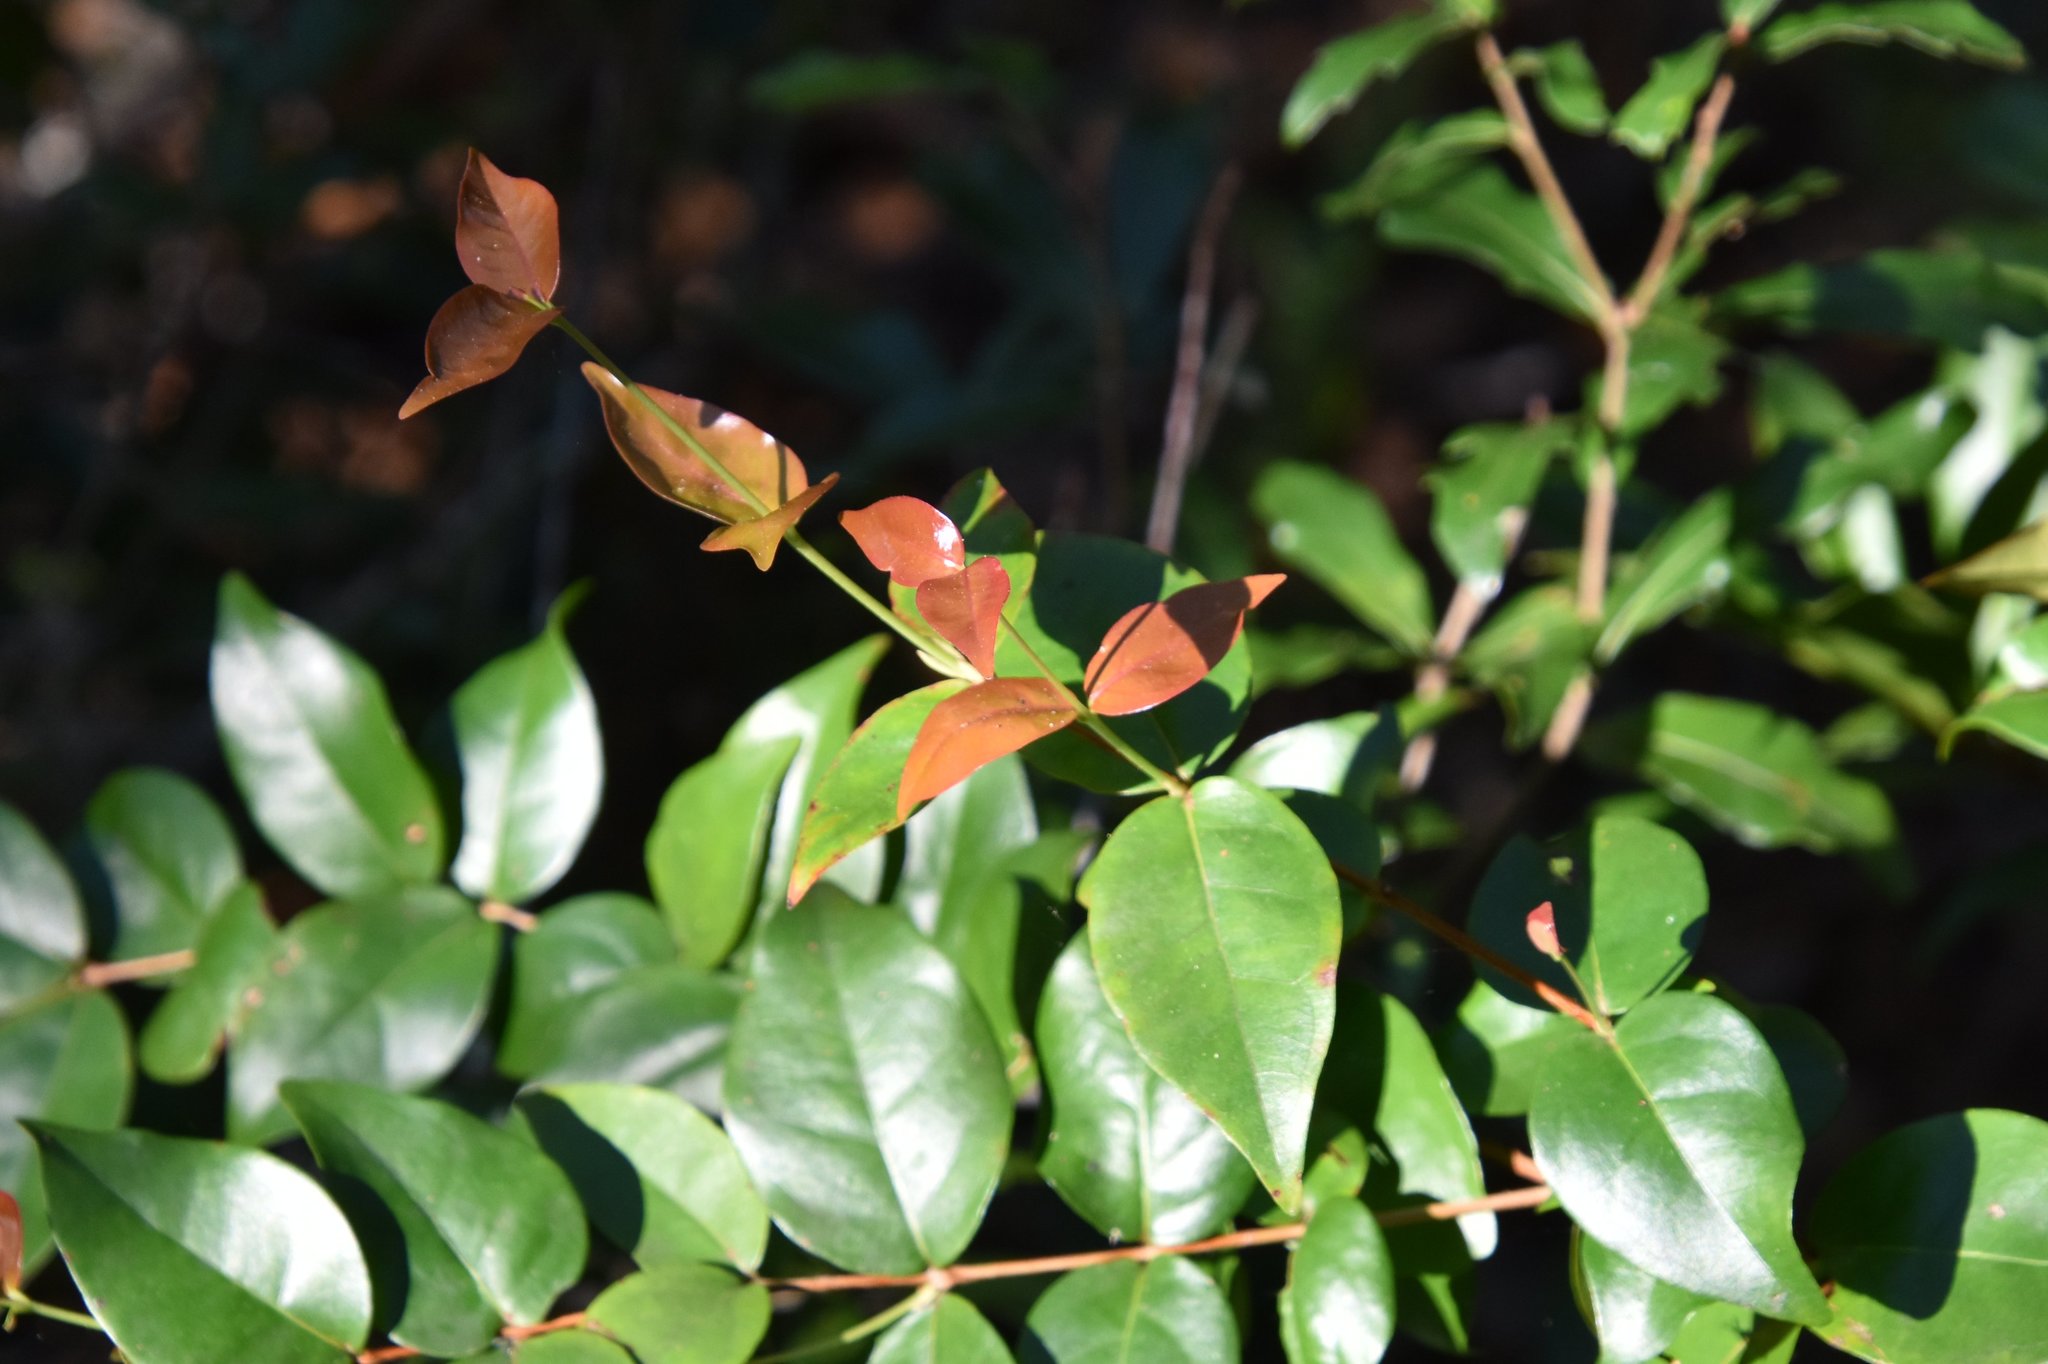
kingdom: Plantae
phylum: Tracheophyta
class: Magnoliopsida
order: Myrtales
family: Myrtaceae
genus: Eugenia
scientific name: Eugenia uniflora
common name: Surinam cherry
